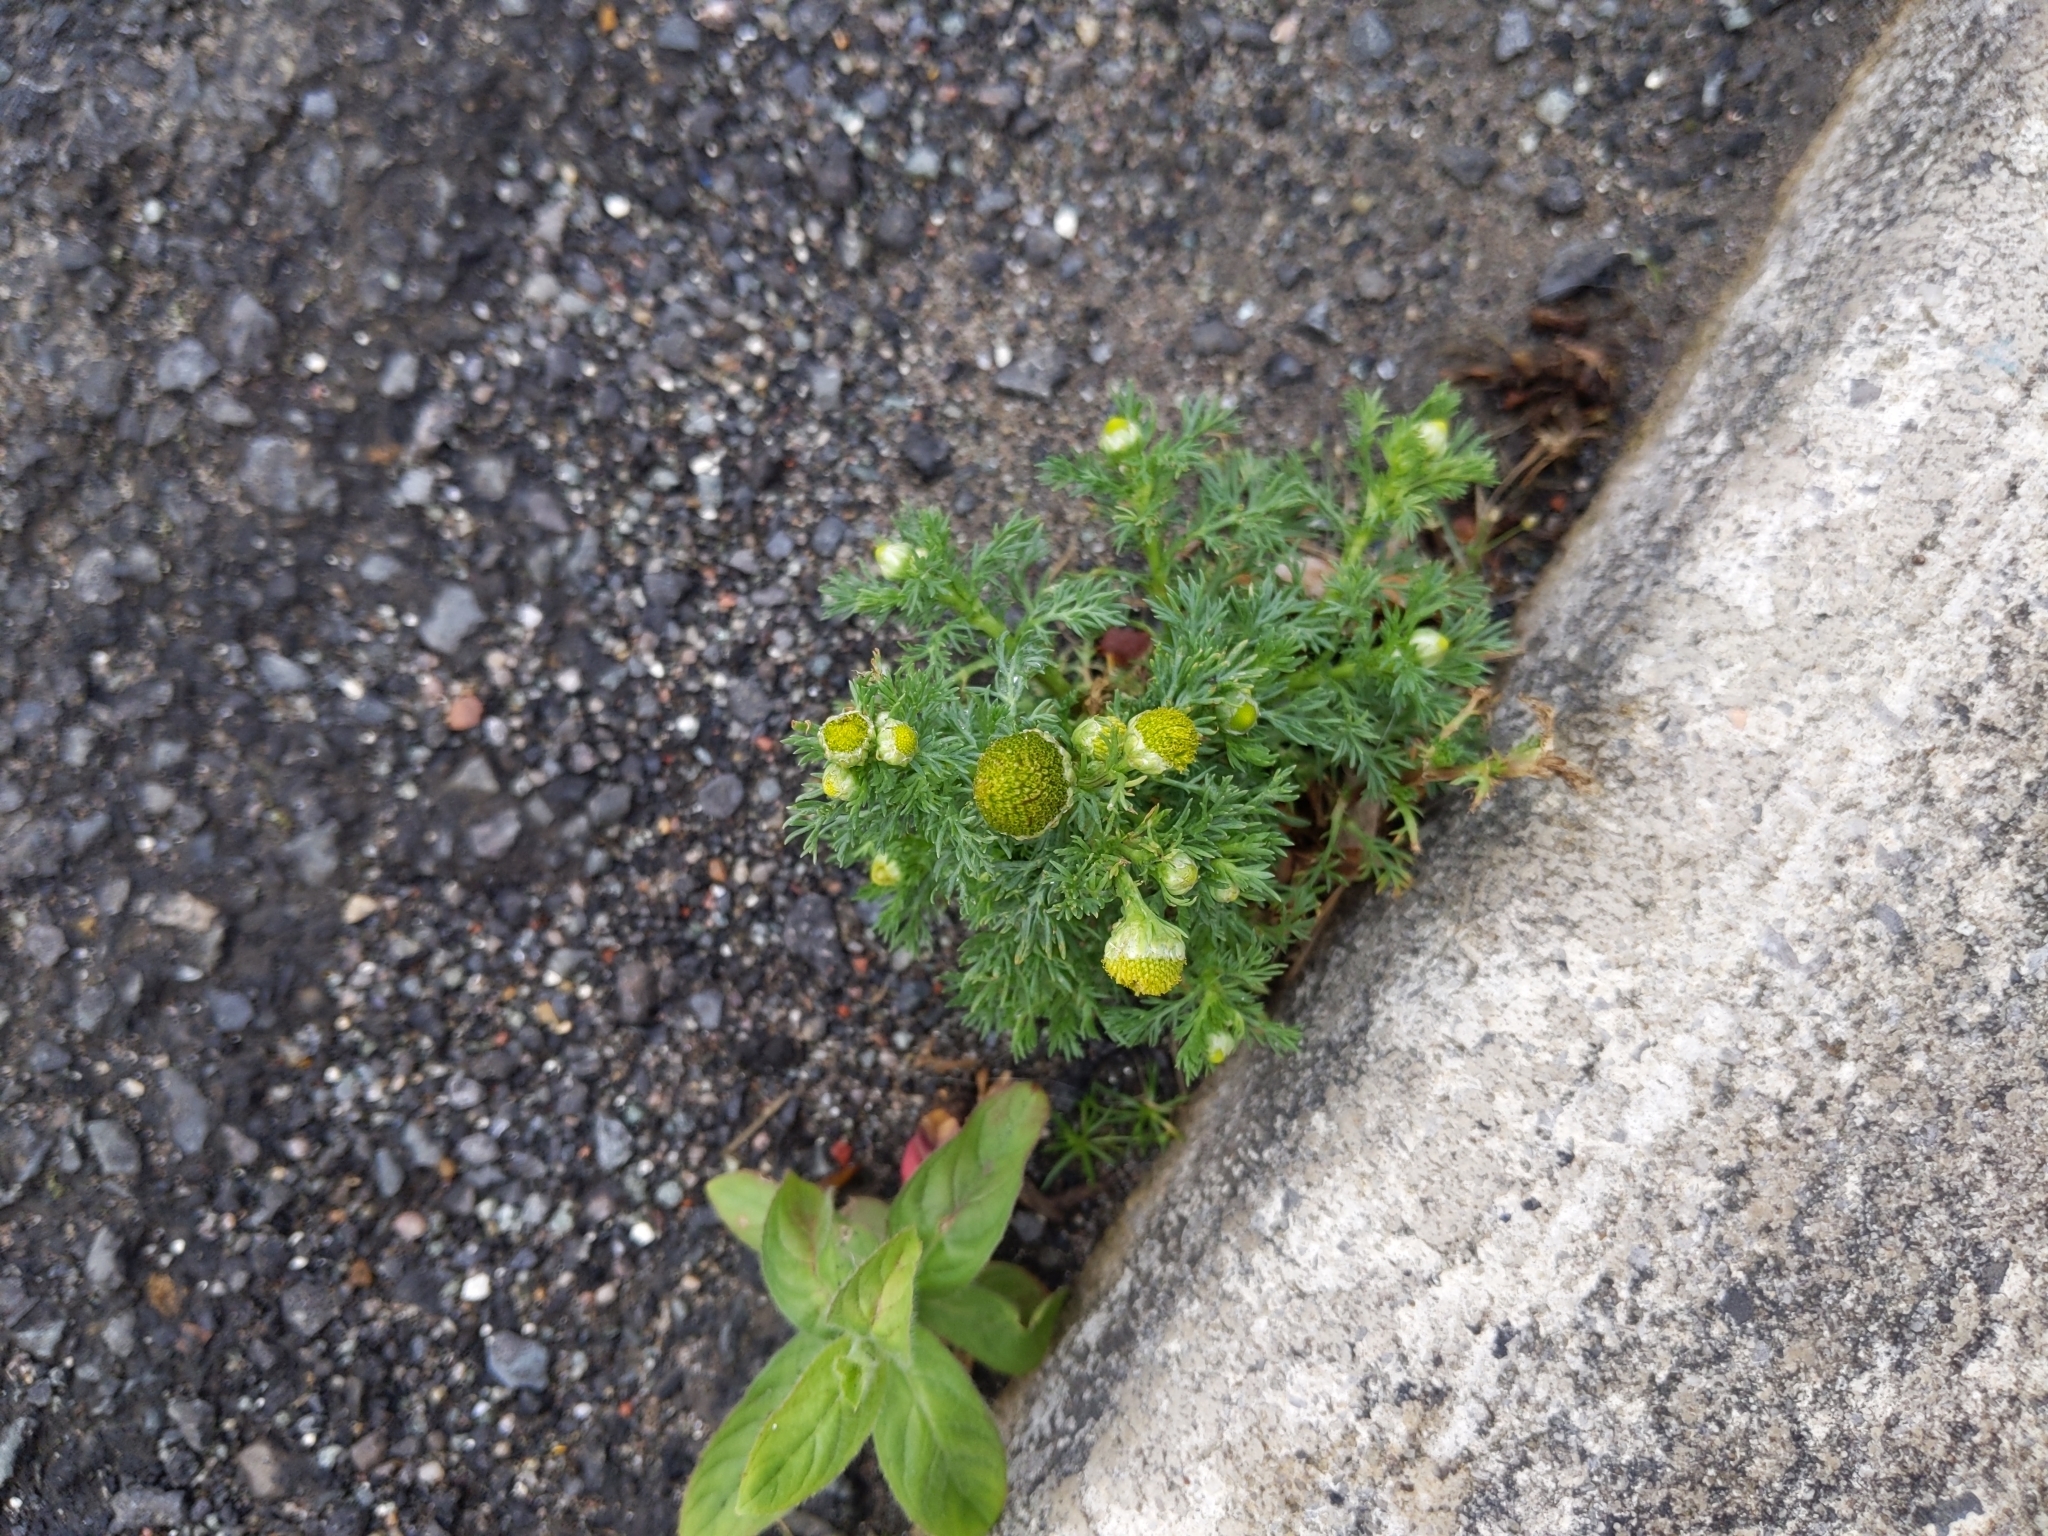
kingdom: Plantae
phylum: Tracheophyta
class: Magnoliopsida
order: Asterales
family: Asteraceae
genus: Matricaria
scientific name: Matricaria discoidea
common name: Disc mayweed
